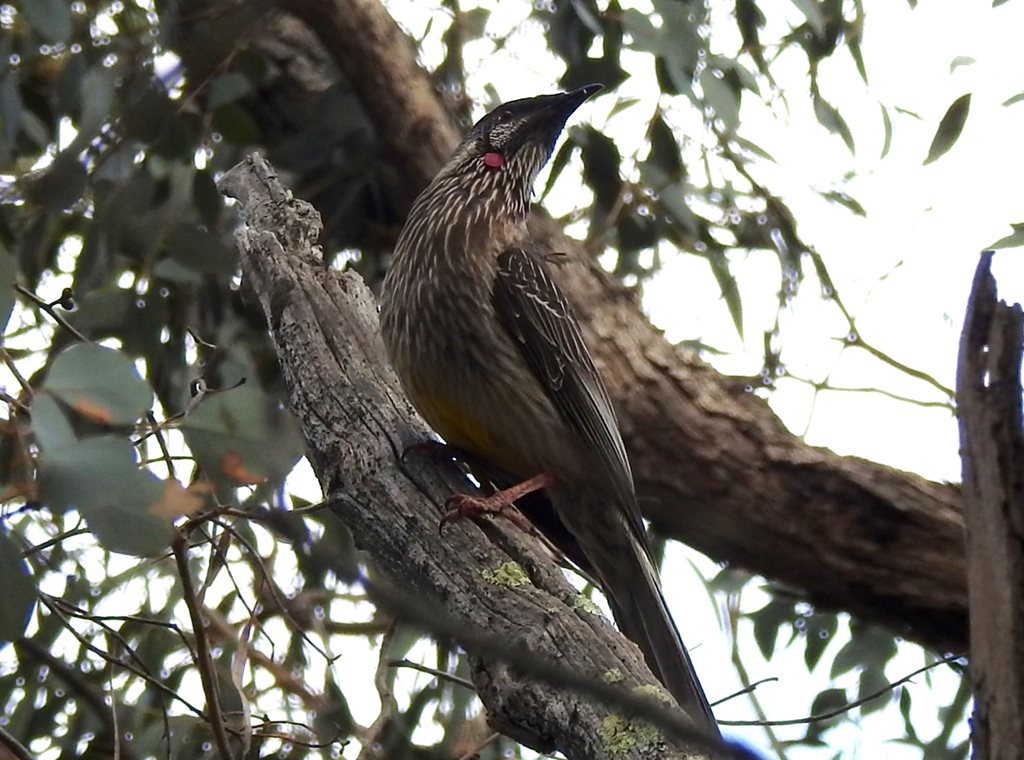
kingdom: Animalia
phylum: Chordata
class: Aves
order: Passeriformes
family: Meliphagidae
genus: Anthochaera
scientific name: Anthochaera carunculata
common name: Red wattlebird
